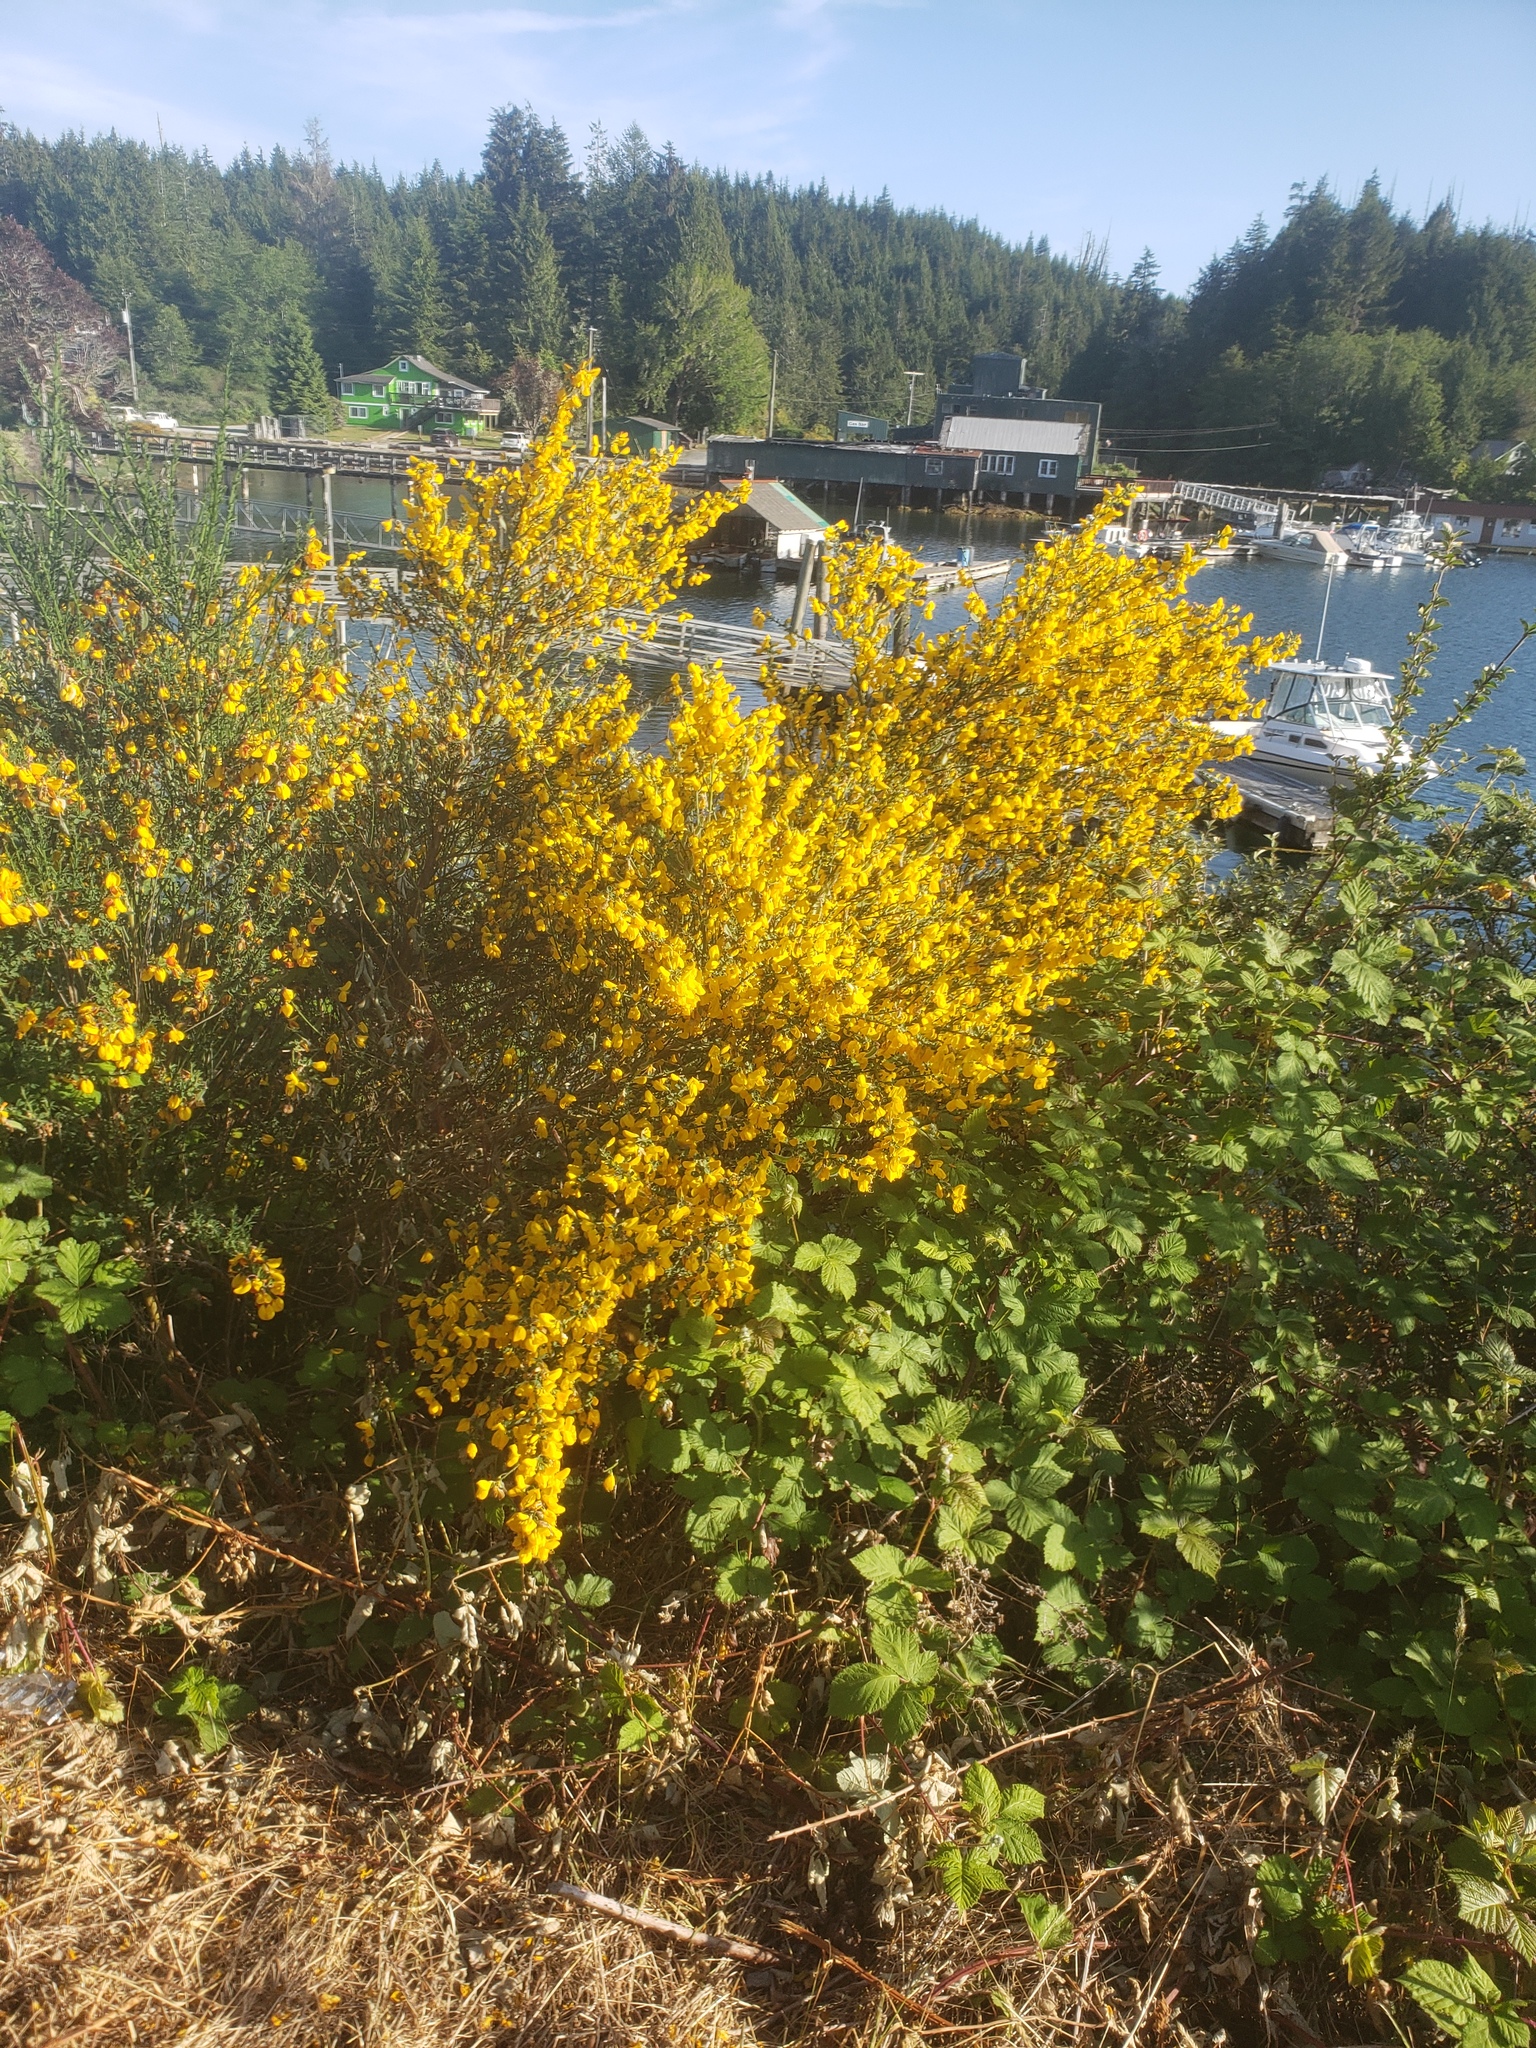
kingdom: Plantae
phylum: Tracheophyta
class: Magnoliopsida
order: Fabales
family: Fabaceae
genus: Cytisus
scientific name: Cytisus scoparius
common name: Scotch broom
